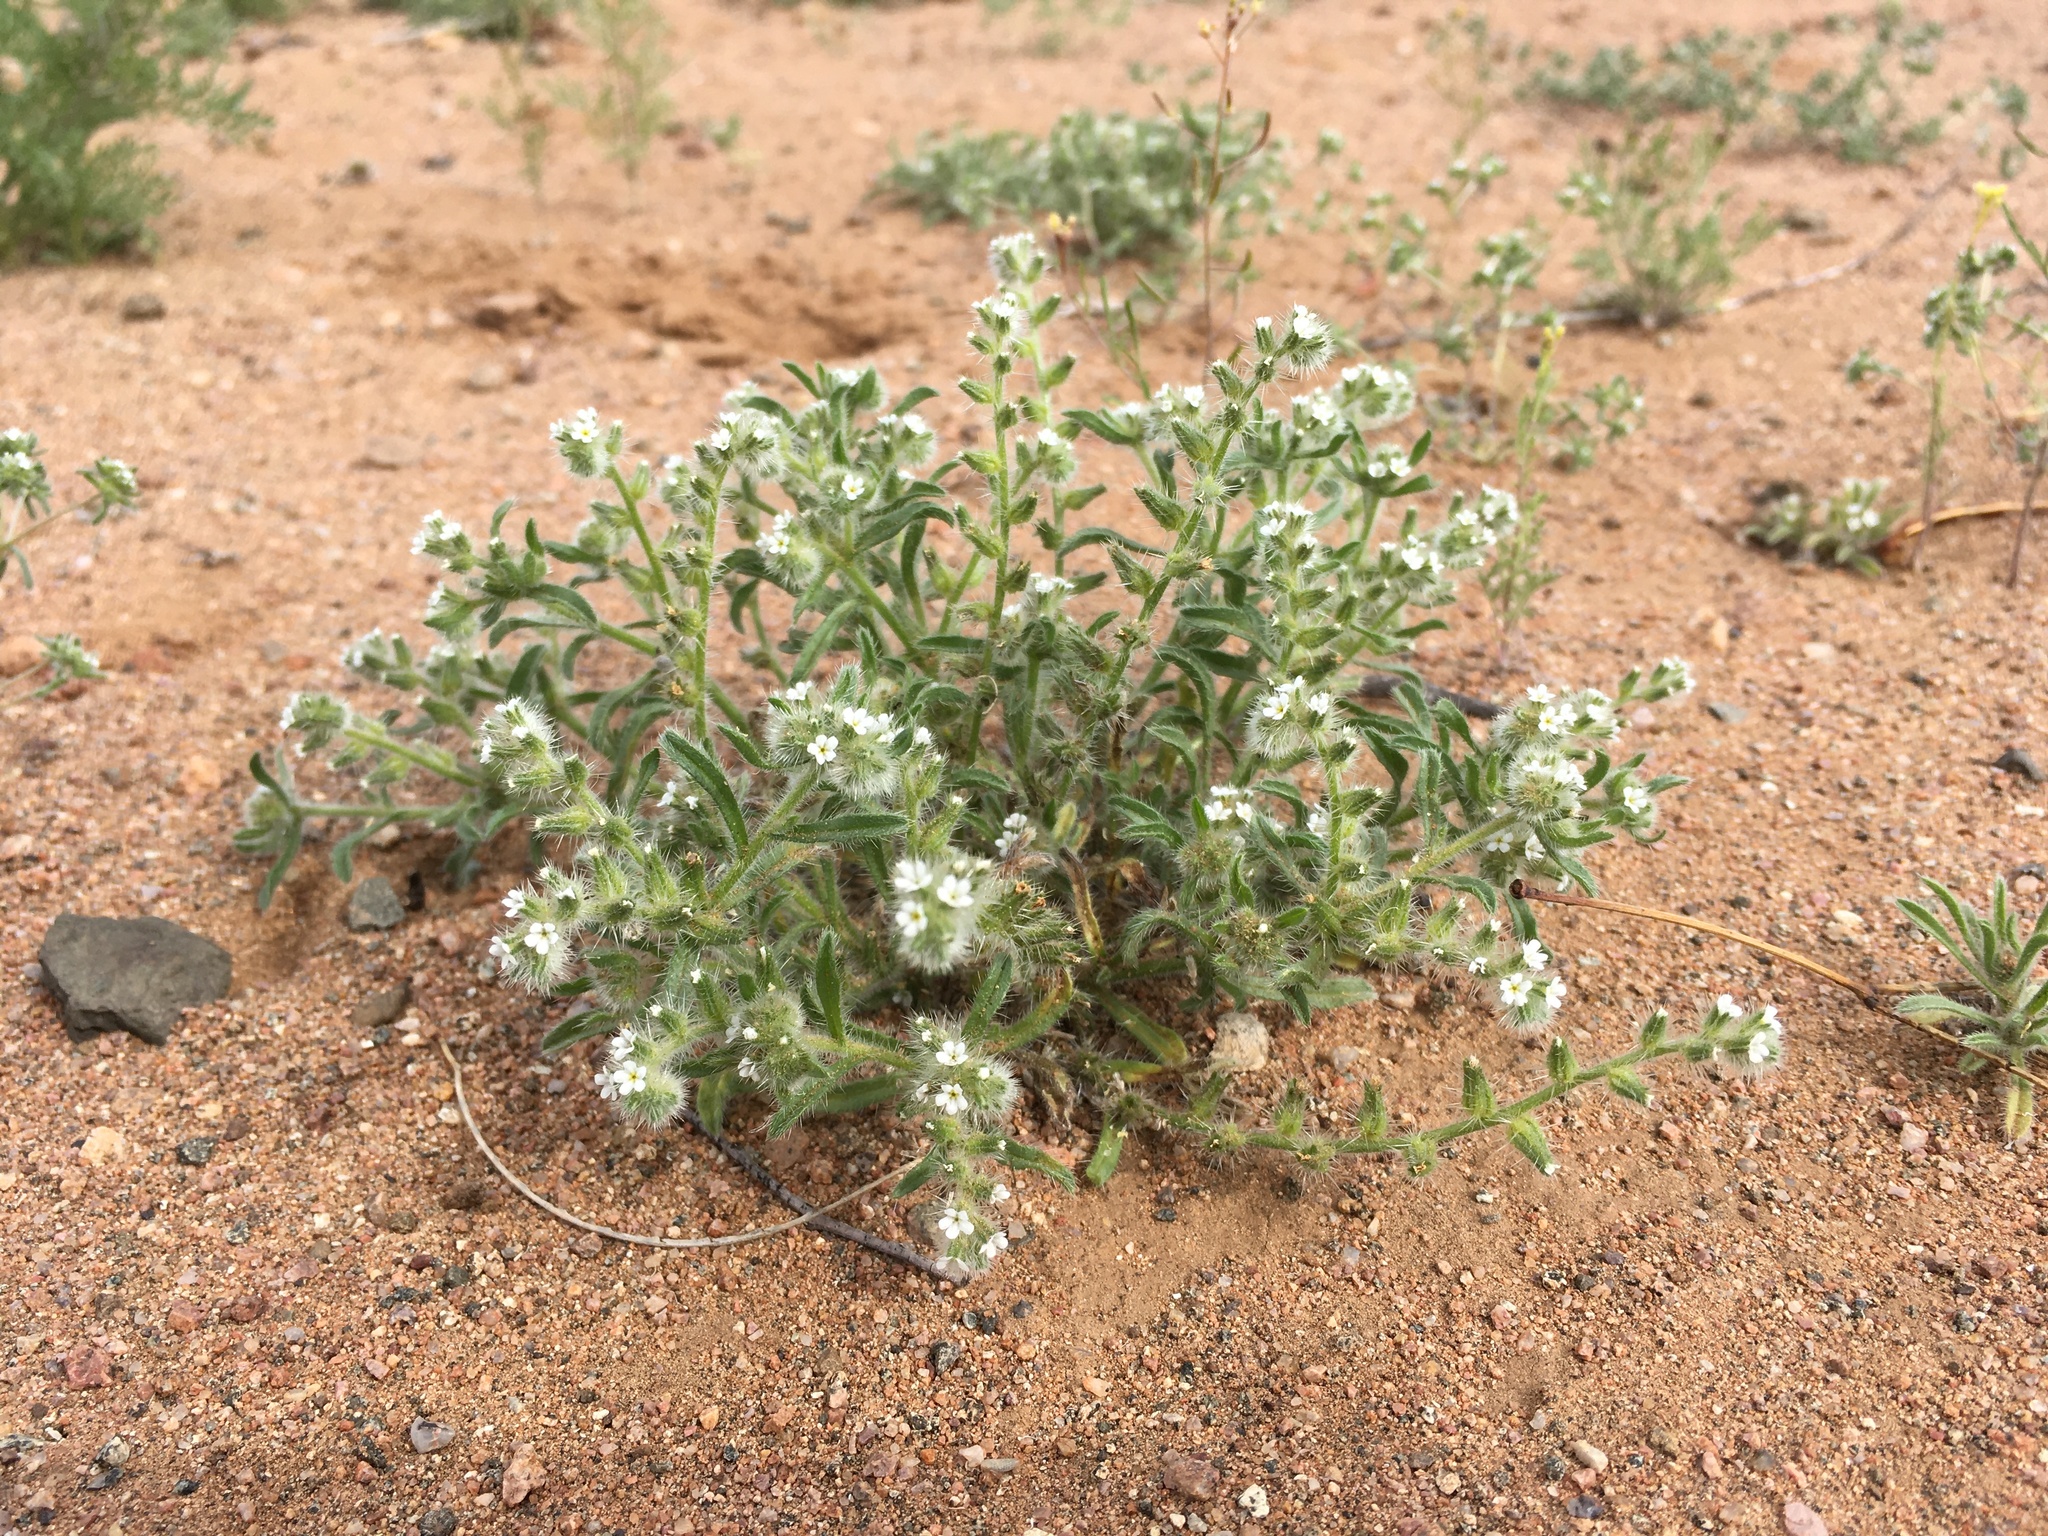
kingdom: Plantae
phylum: Tracheophyta
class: Magnoliopsida
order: Boraginales
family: Boraginaceae
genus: Cryptantha
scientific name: Cryptantha crassisepala
